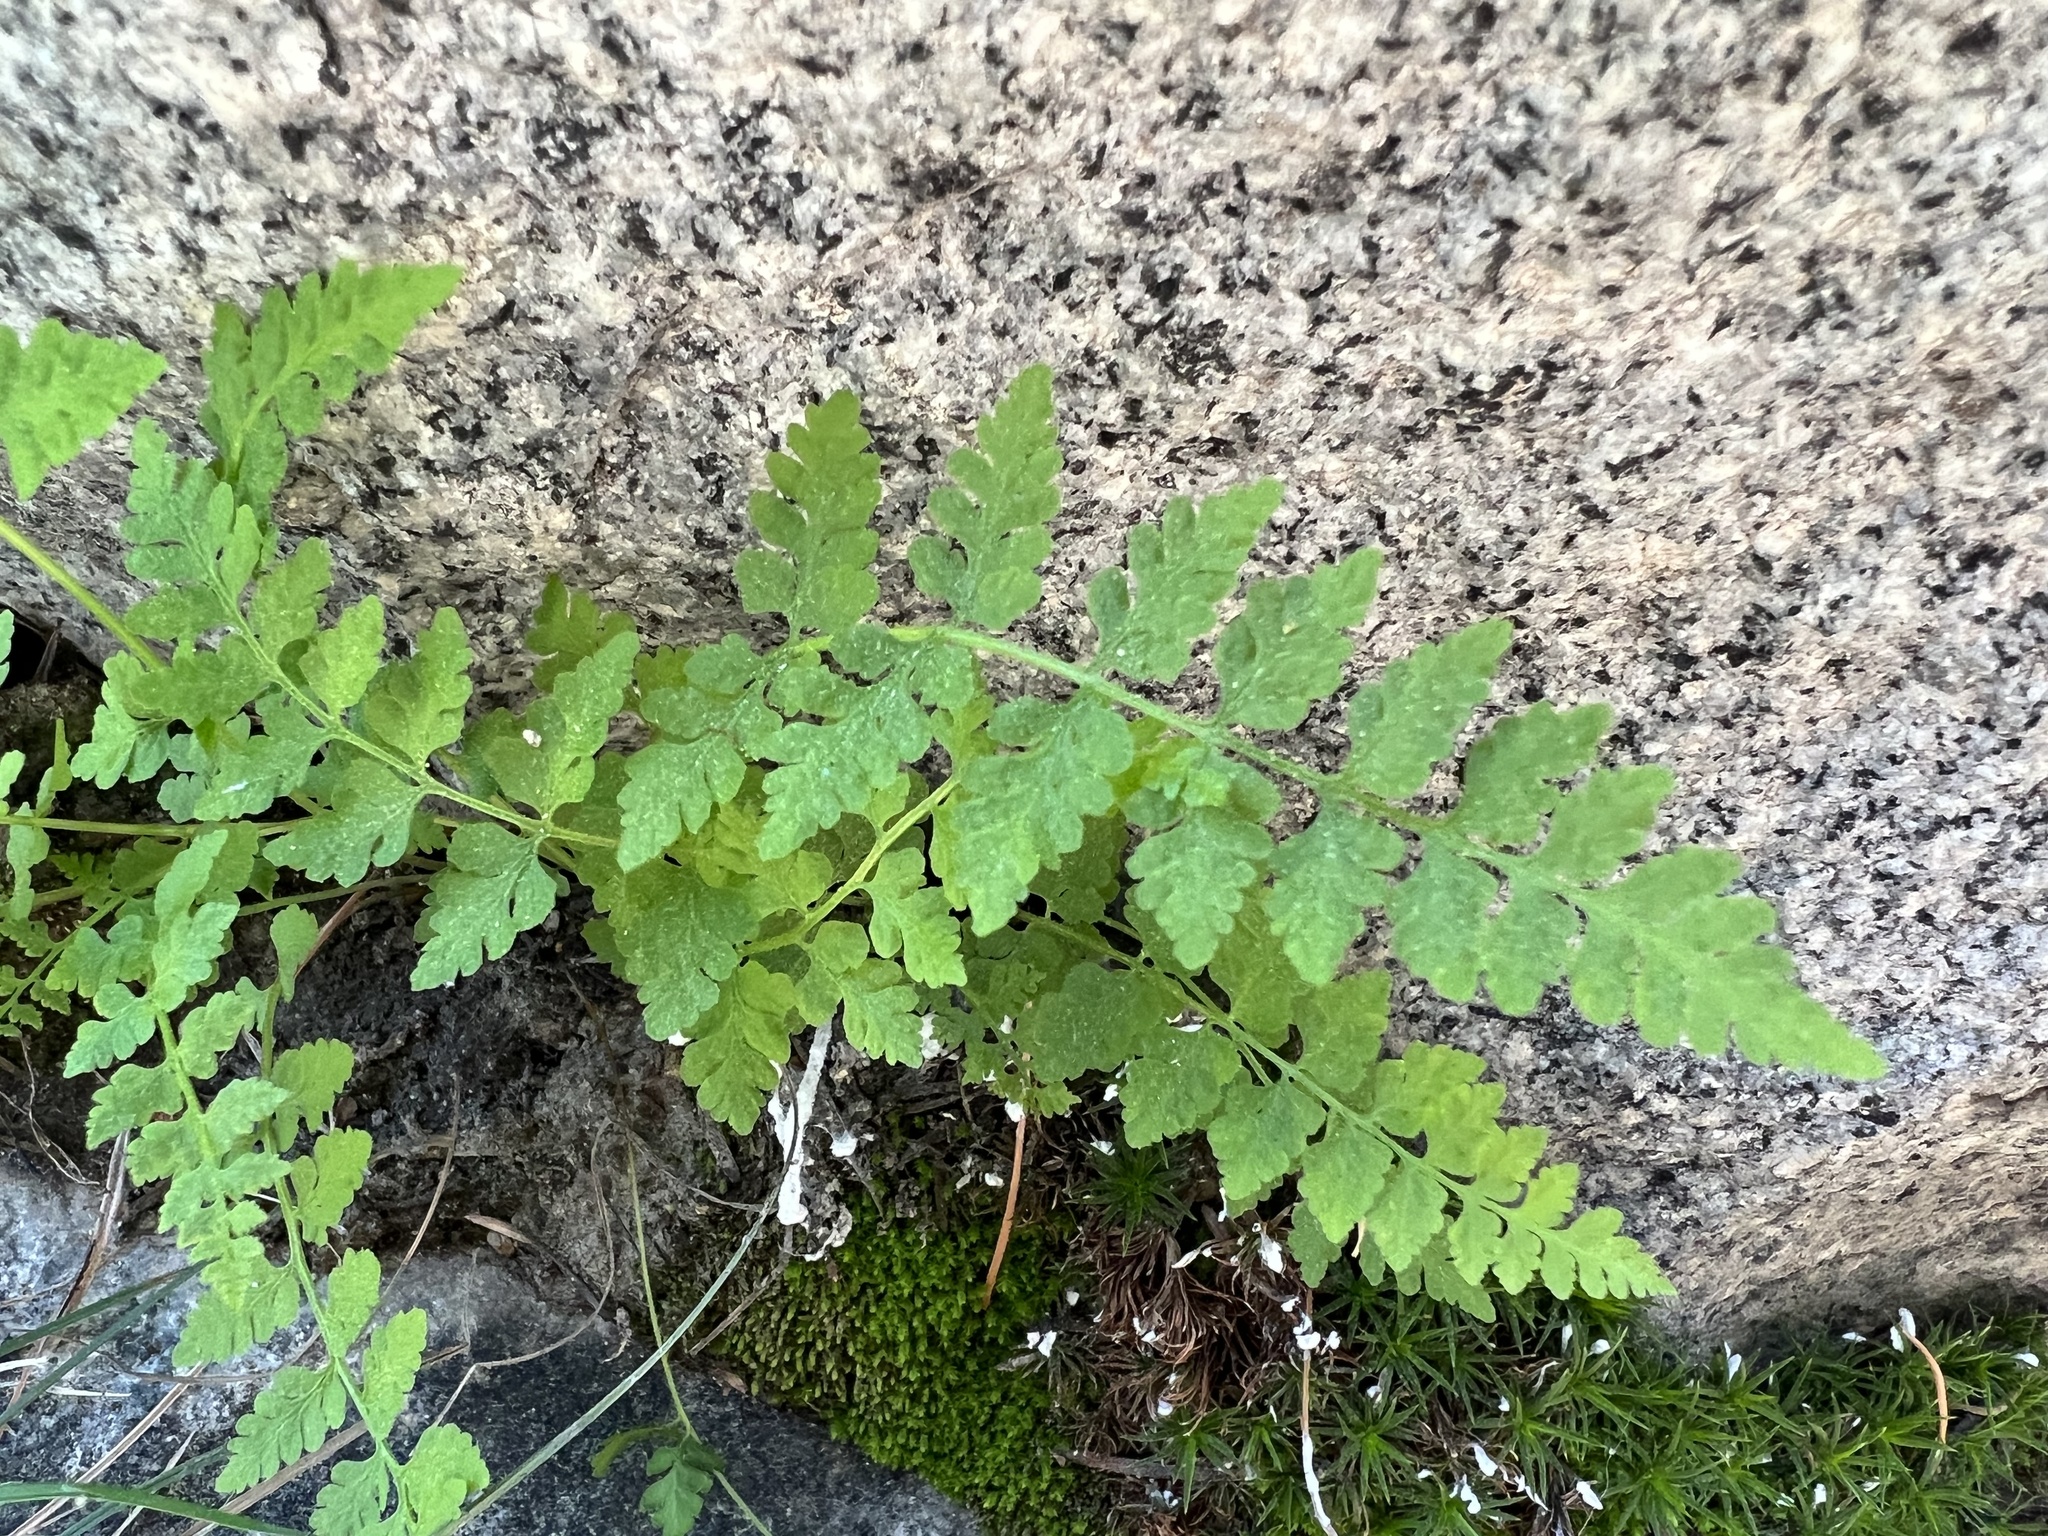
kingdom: Plantae
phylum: Tracheophyta
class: Polypodiopsida
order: Polypodiales
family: Cystopteridaceae
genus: Cystopteris
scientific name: Cystopteris fragilis
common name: Brittle bladder fern
